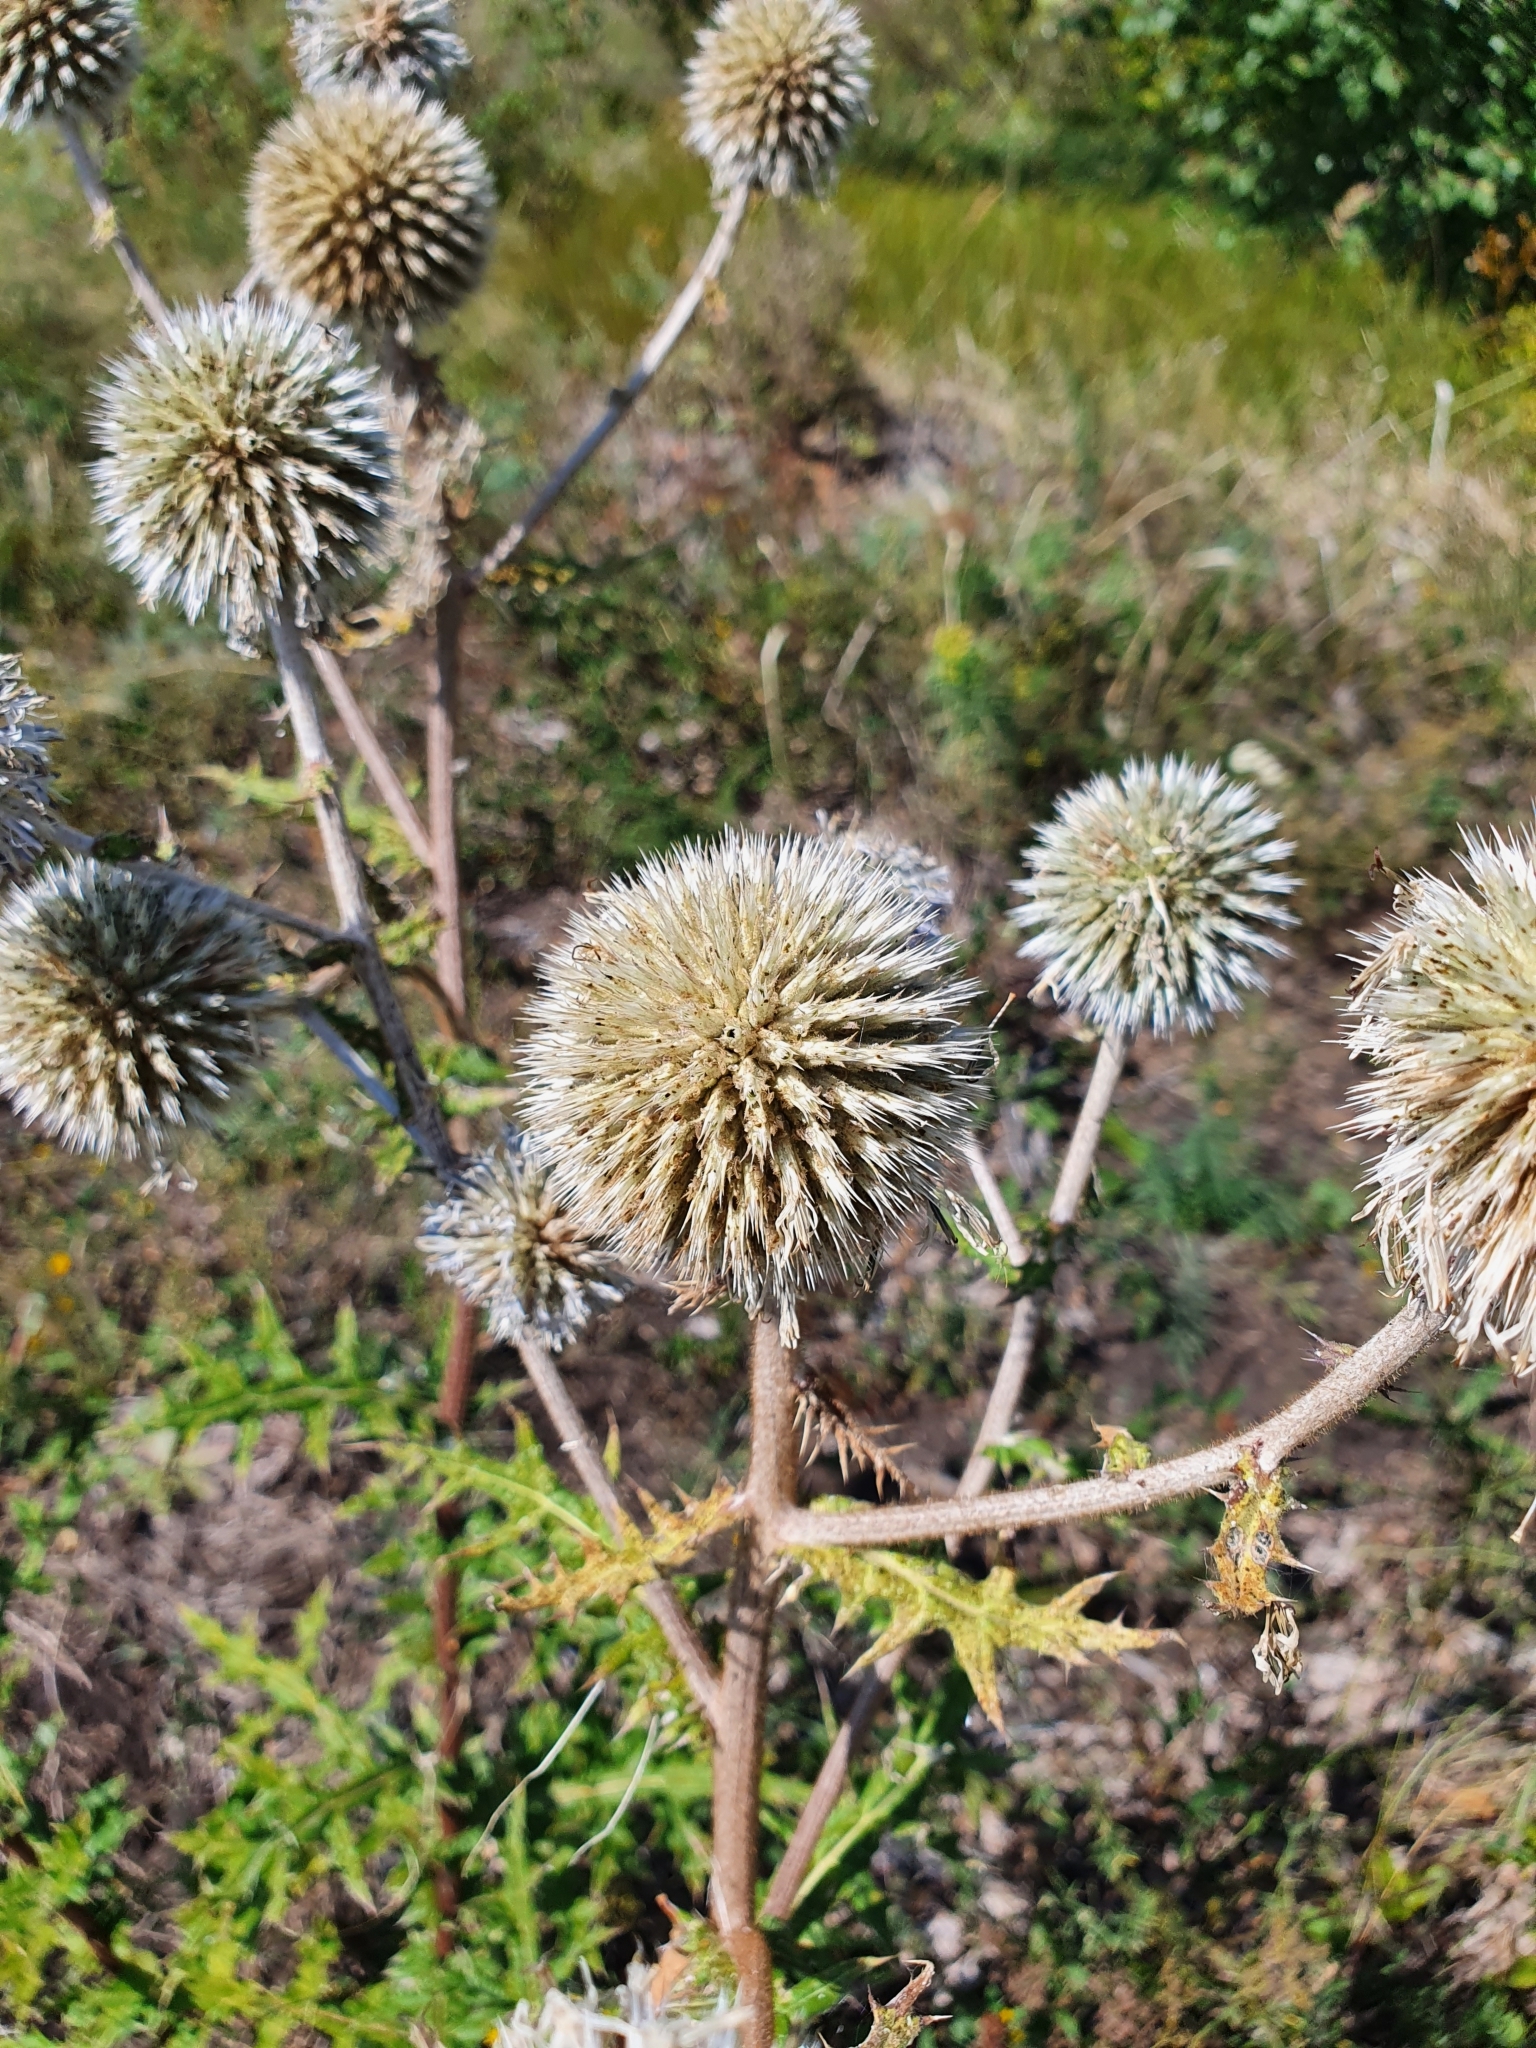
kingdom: Plantae
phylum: Tracheophyta
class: Magnoliopsida
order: Asterales
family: Asteraceae
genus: Echinops
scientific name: Echinops sphaerocephalus
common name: Glandular globe-thistle
